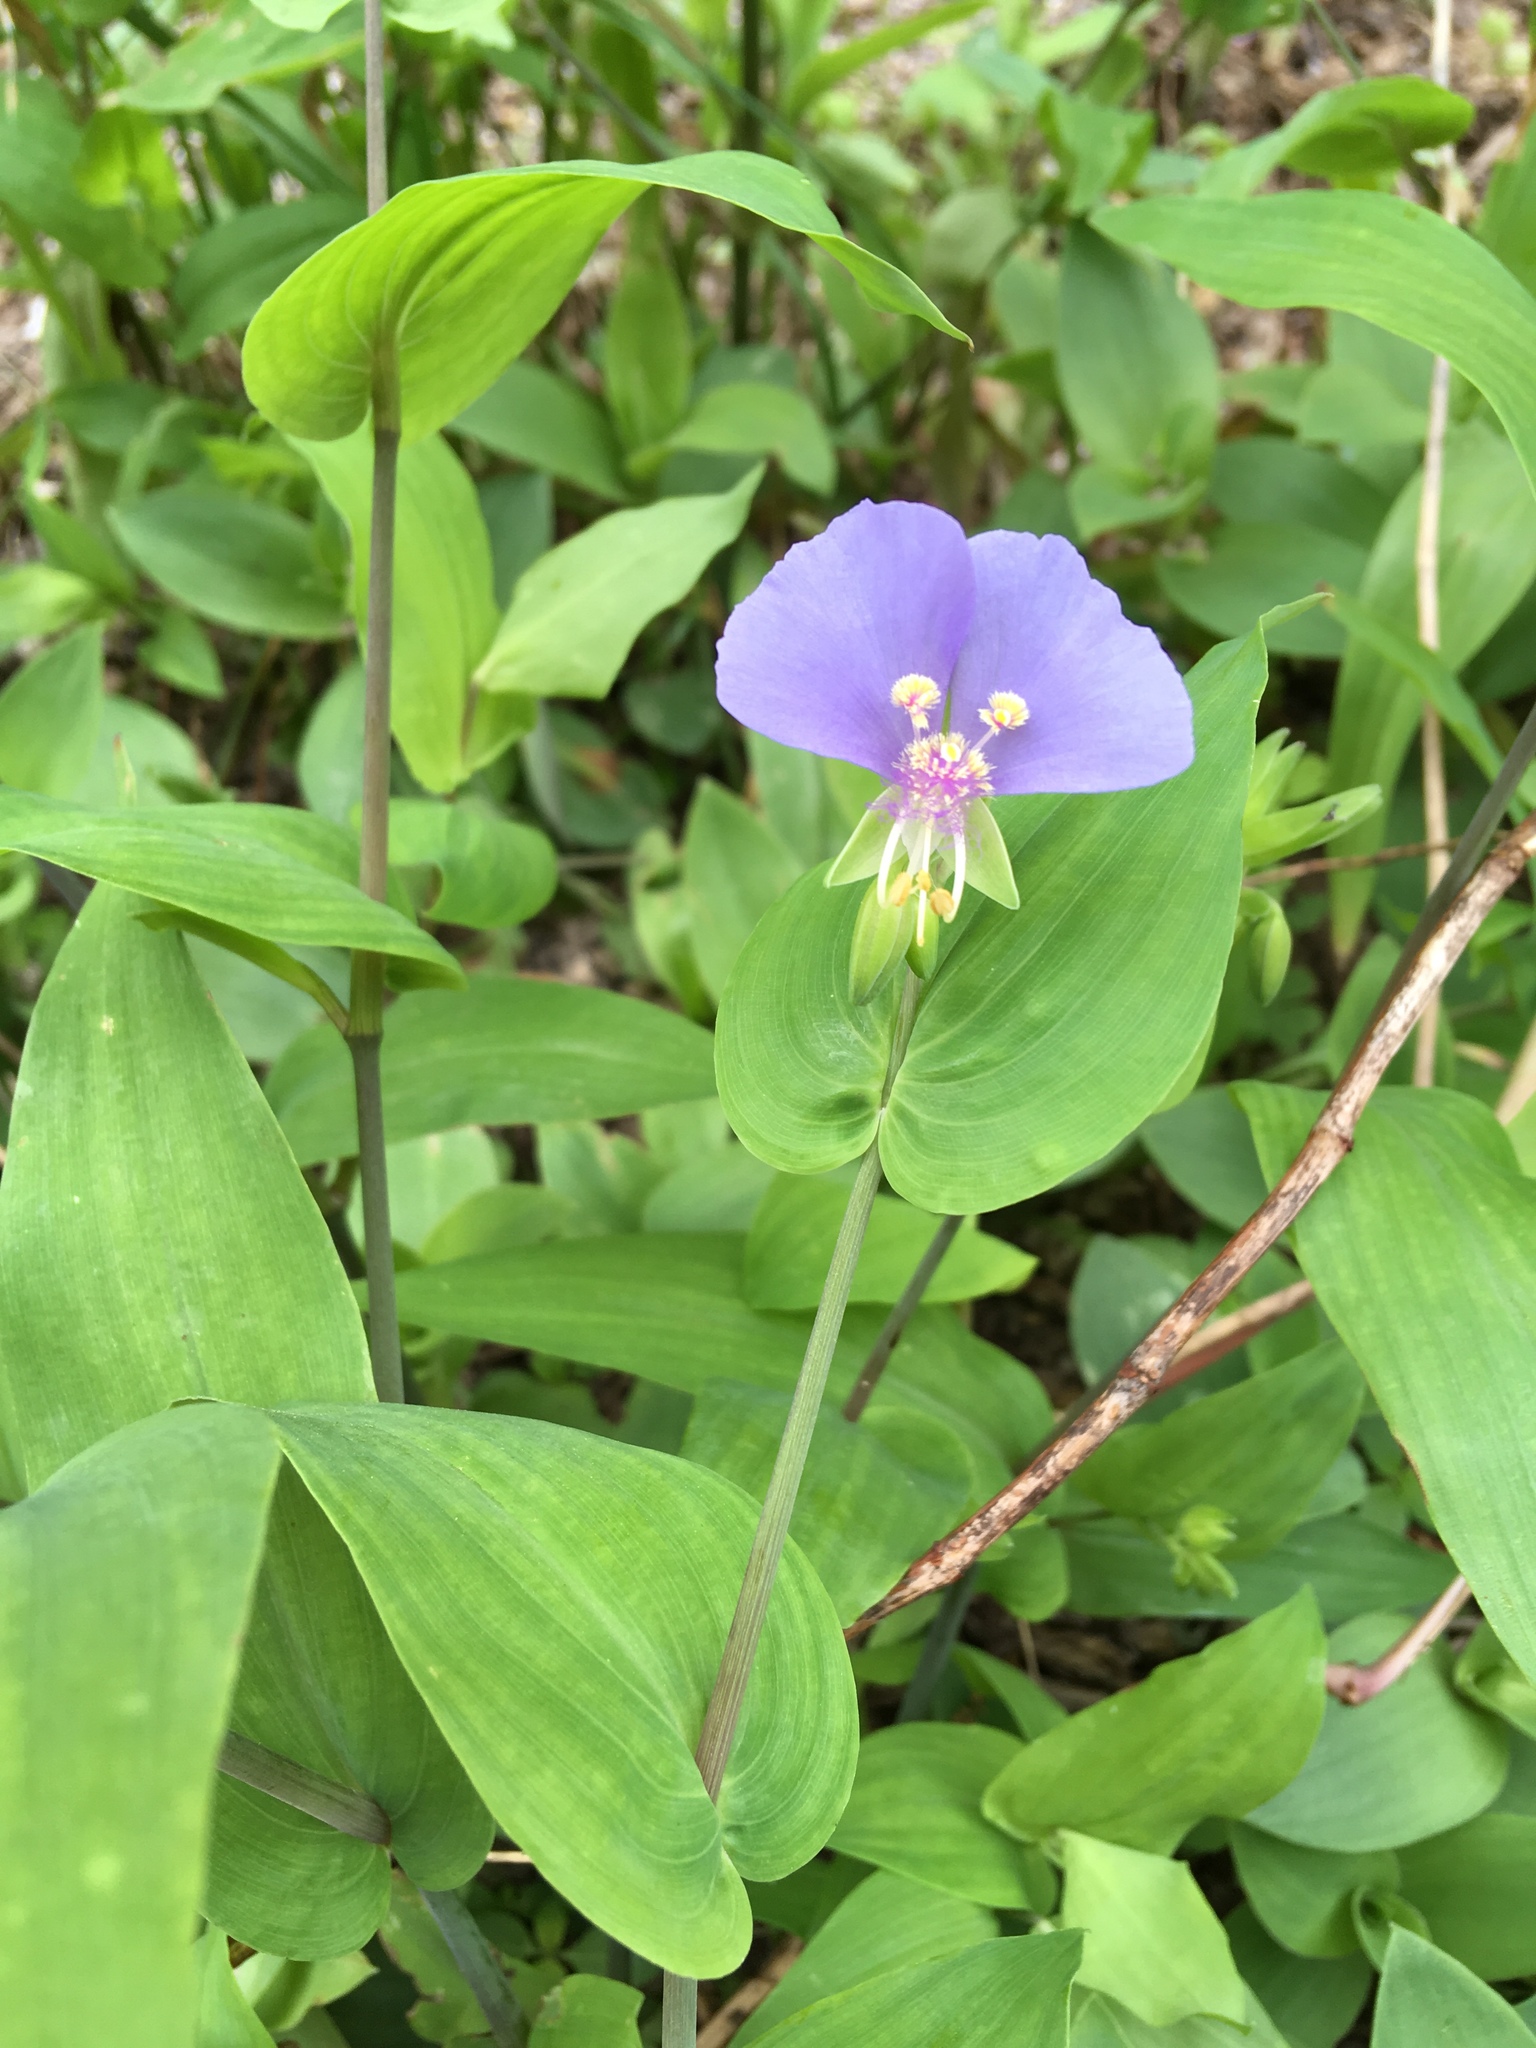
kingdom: Plantae
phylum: Tracheophyta
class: Liliopsida
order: Commelinales
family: Commelinaceae
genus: Tinantia
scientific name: Tinantia anomala
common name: False dayflower
